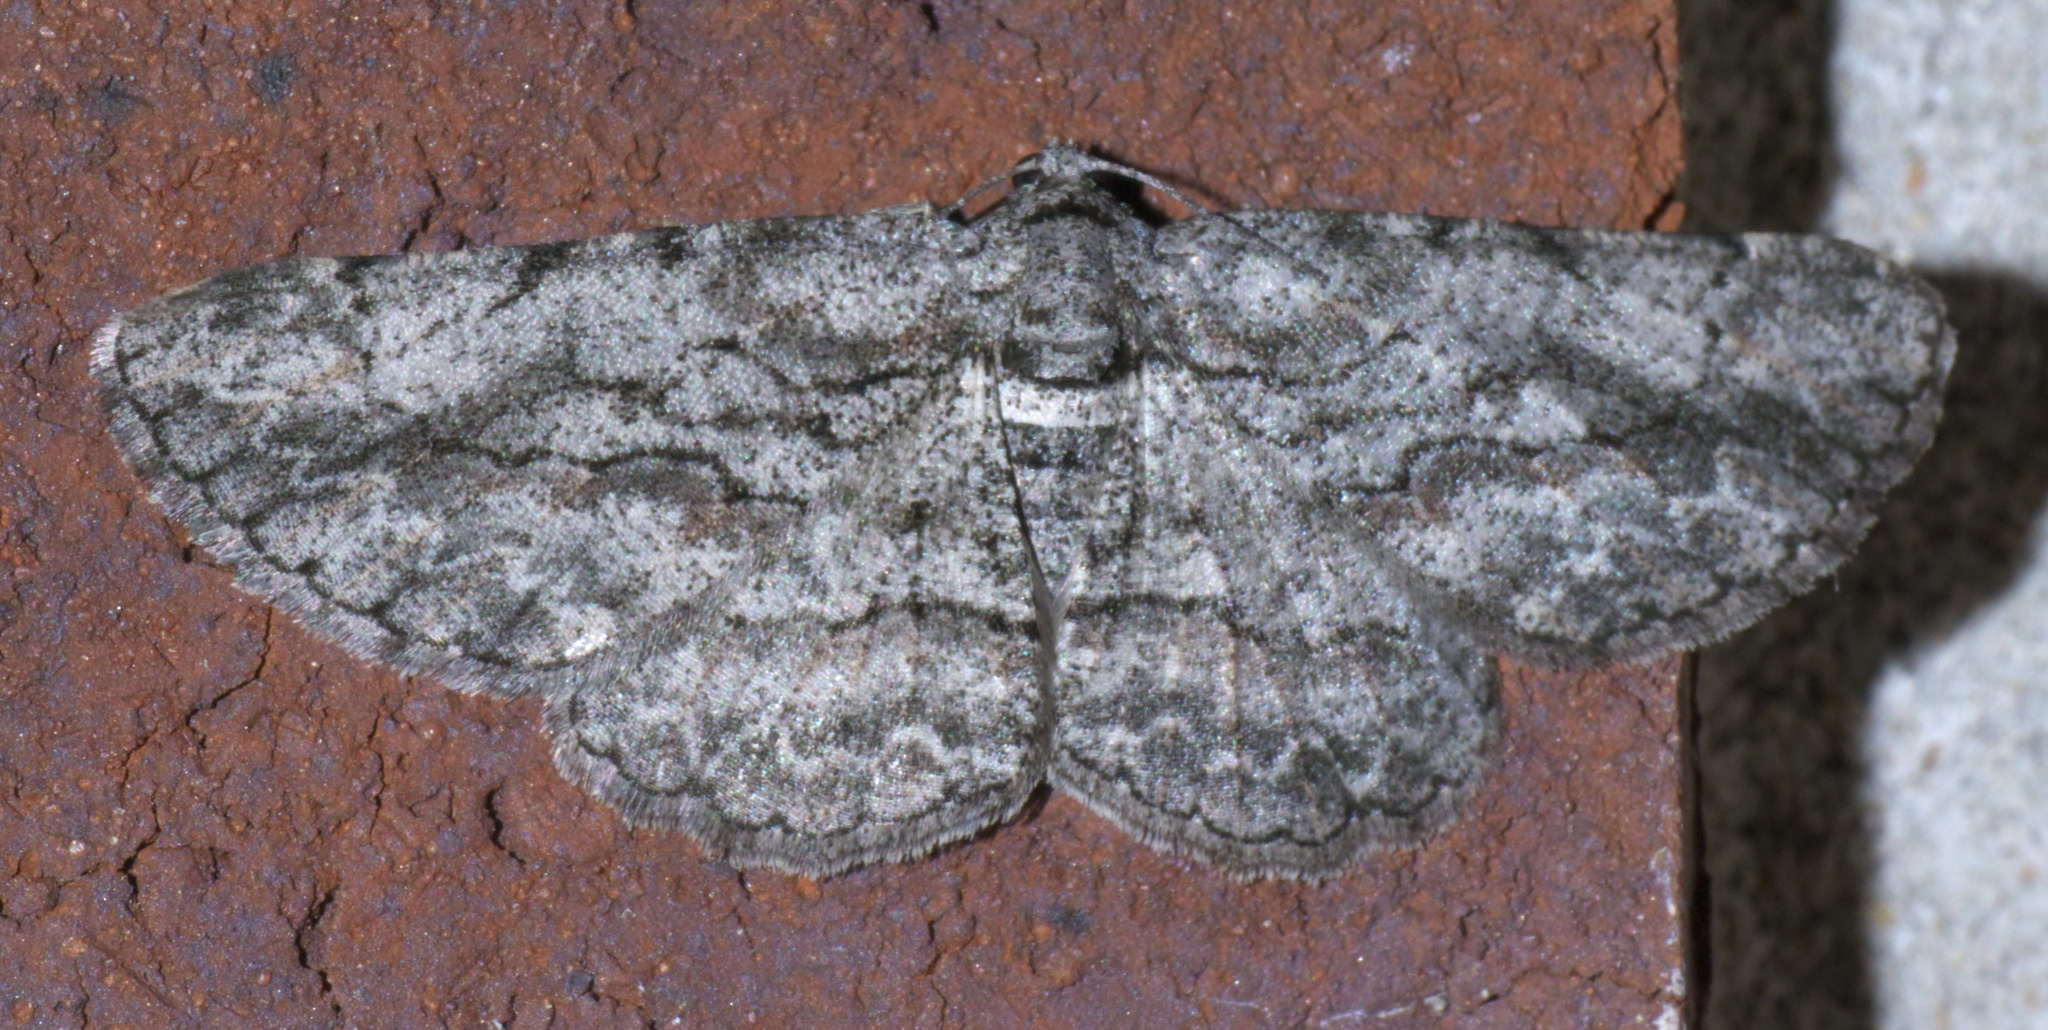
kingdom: Animalia
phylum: Arthropoda
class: Insecta
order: Lepidoptera
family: Geometridae
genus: Anavitrinella
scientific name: Anavitrinella pampinaria
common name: Common gray
